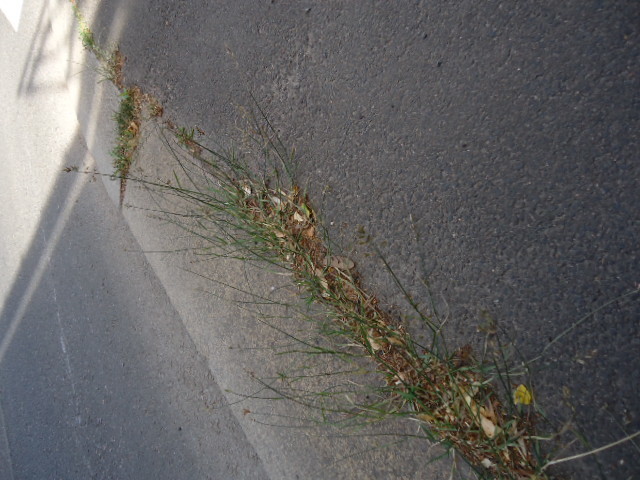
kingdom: Plantae
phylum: Tracheophyta
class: Liliopsida
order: Poales
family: Poaceae
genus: Poa
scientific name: Poa compressa
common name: Canada bluegrass
